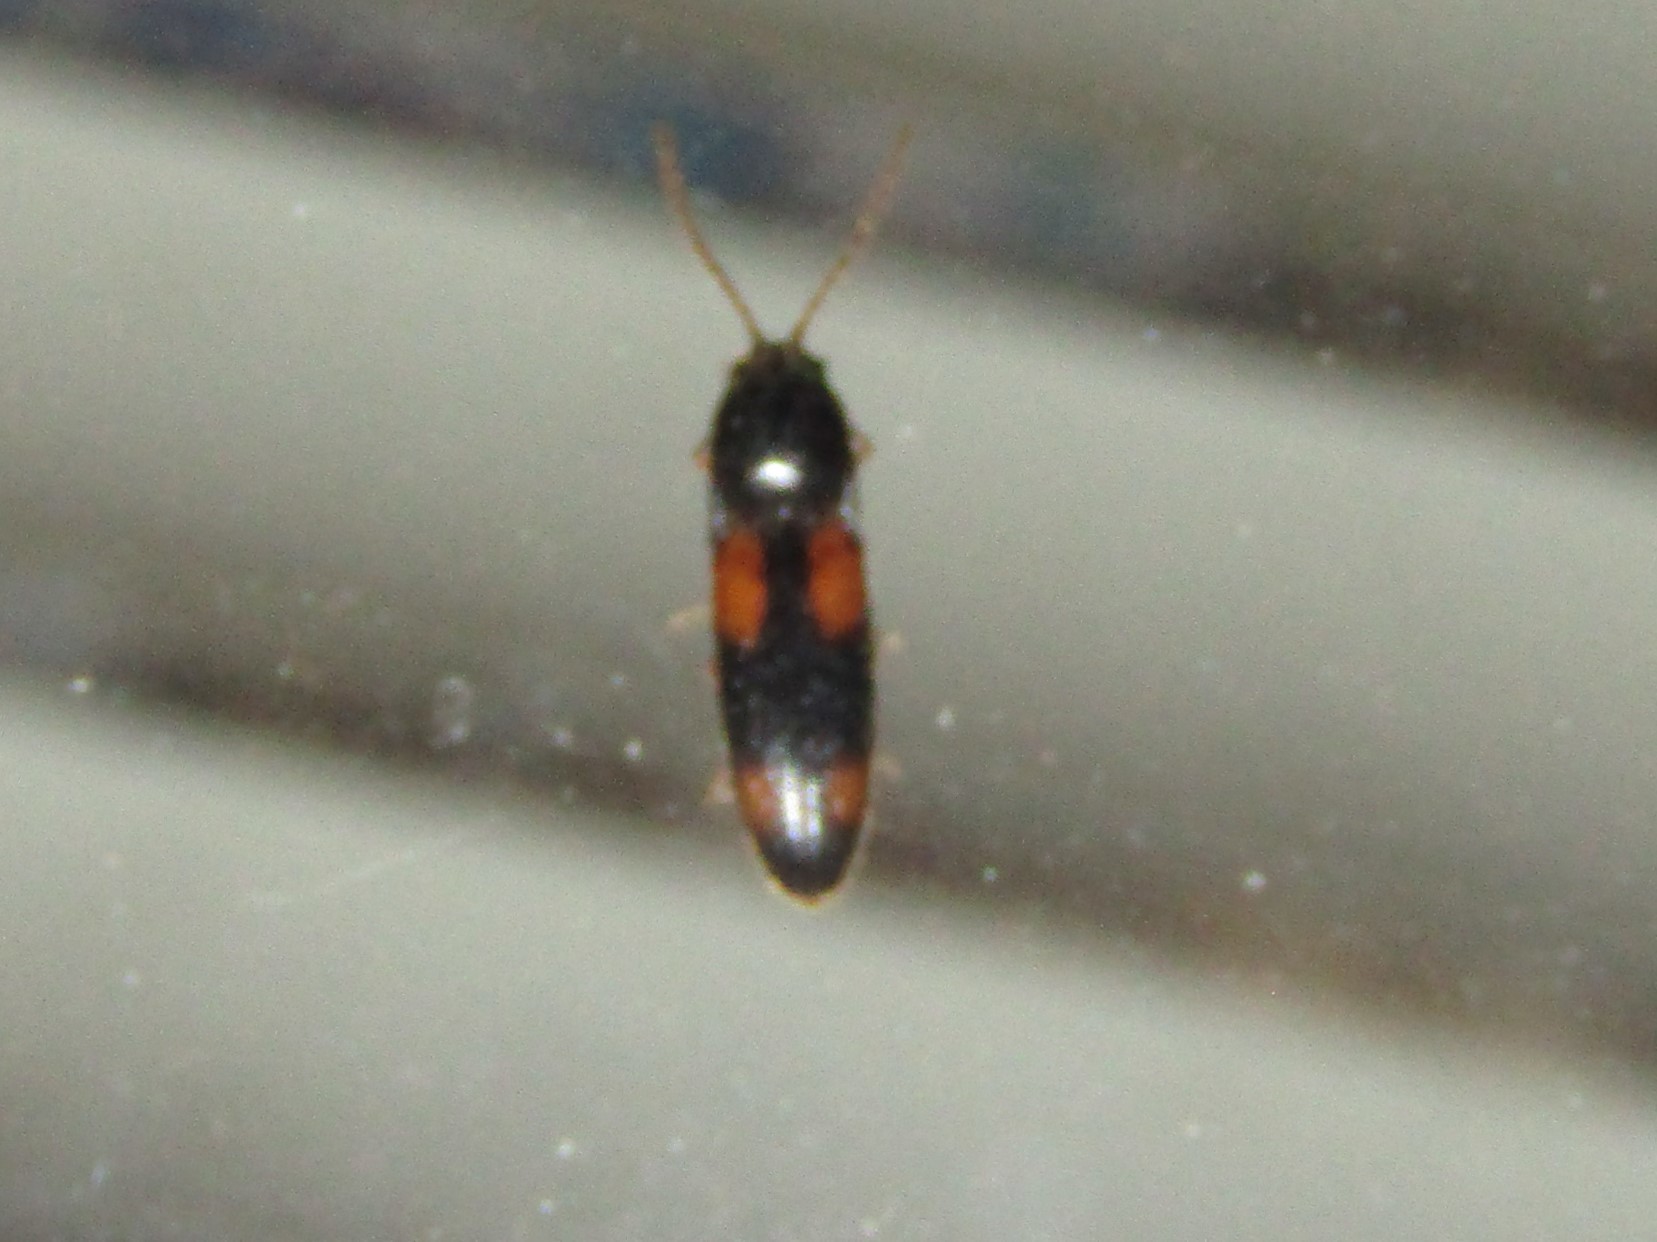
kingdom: Animalia
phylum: Arthropoda
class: Insecta
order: Coleoptera
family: Elateridae
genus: Anchastus
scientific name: Anchastus binus
